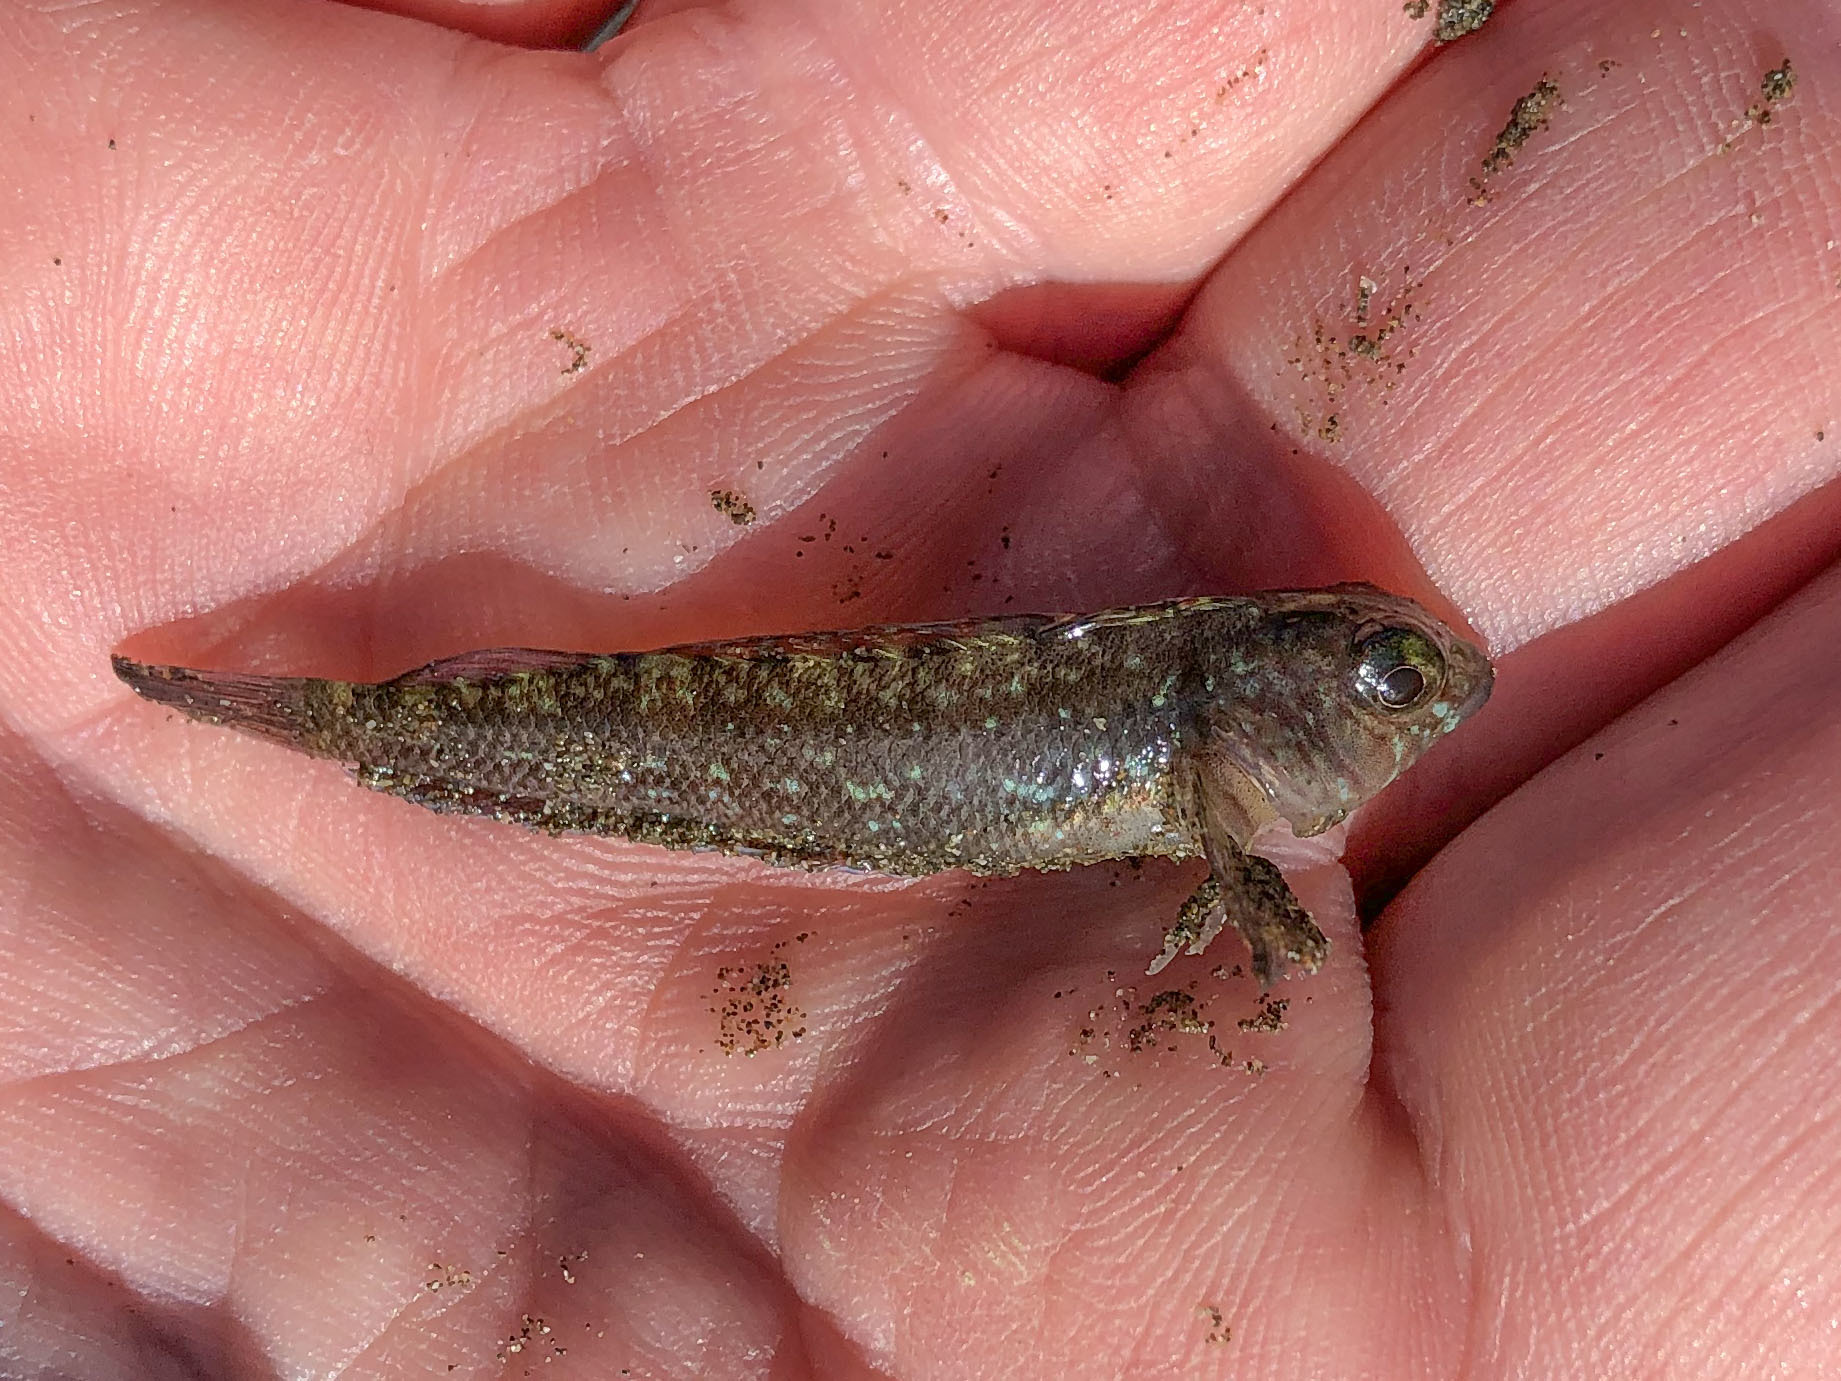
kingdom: Animalia
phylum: Chordata
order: Perciformes
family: Tripterygiidae
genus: Forsterygion
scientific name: Forsterygion lapillum
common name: Common triplefin
